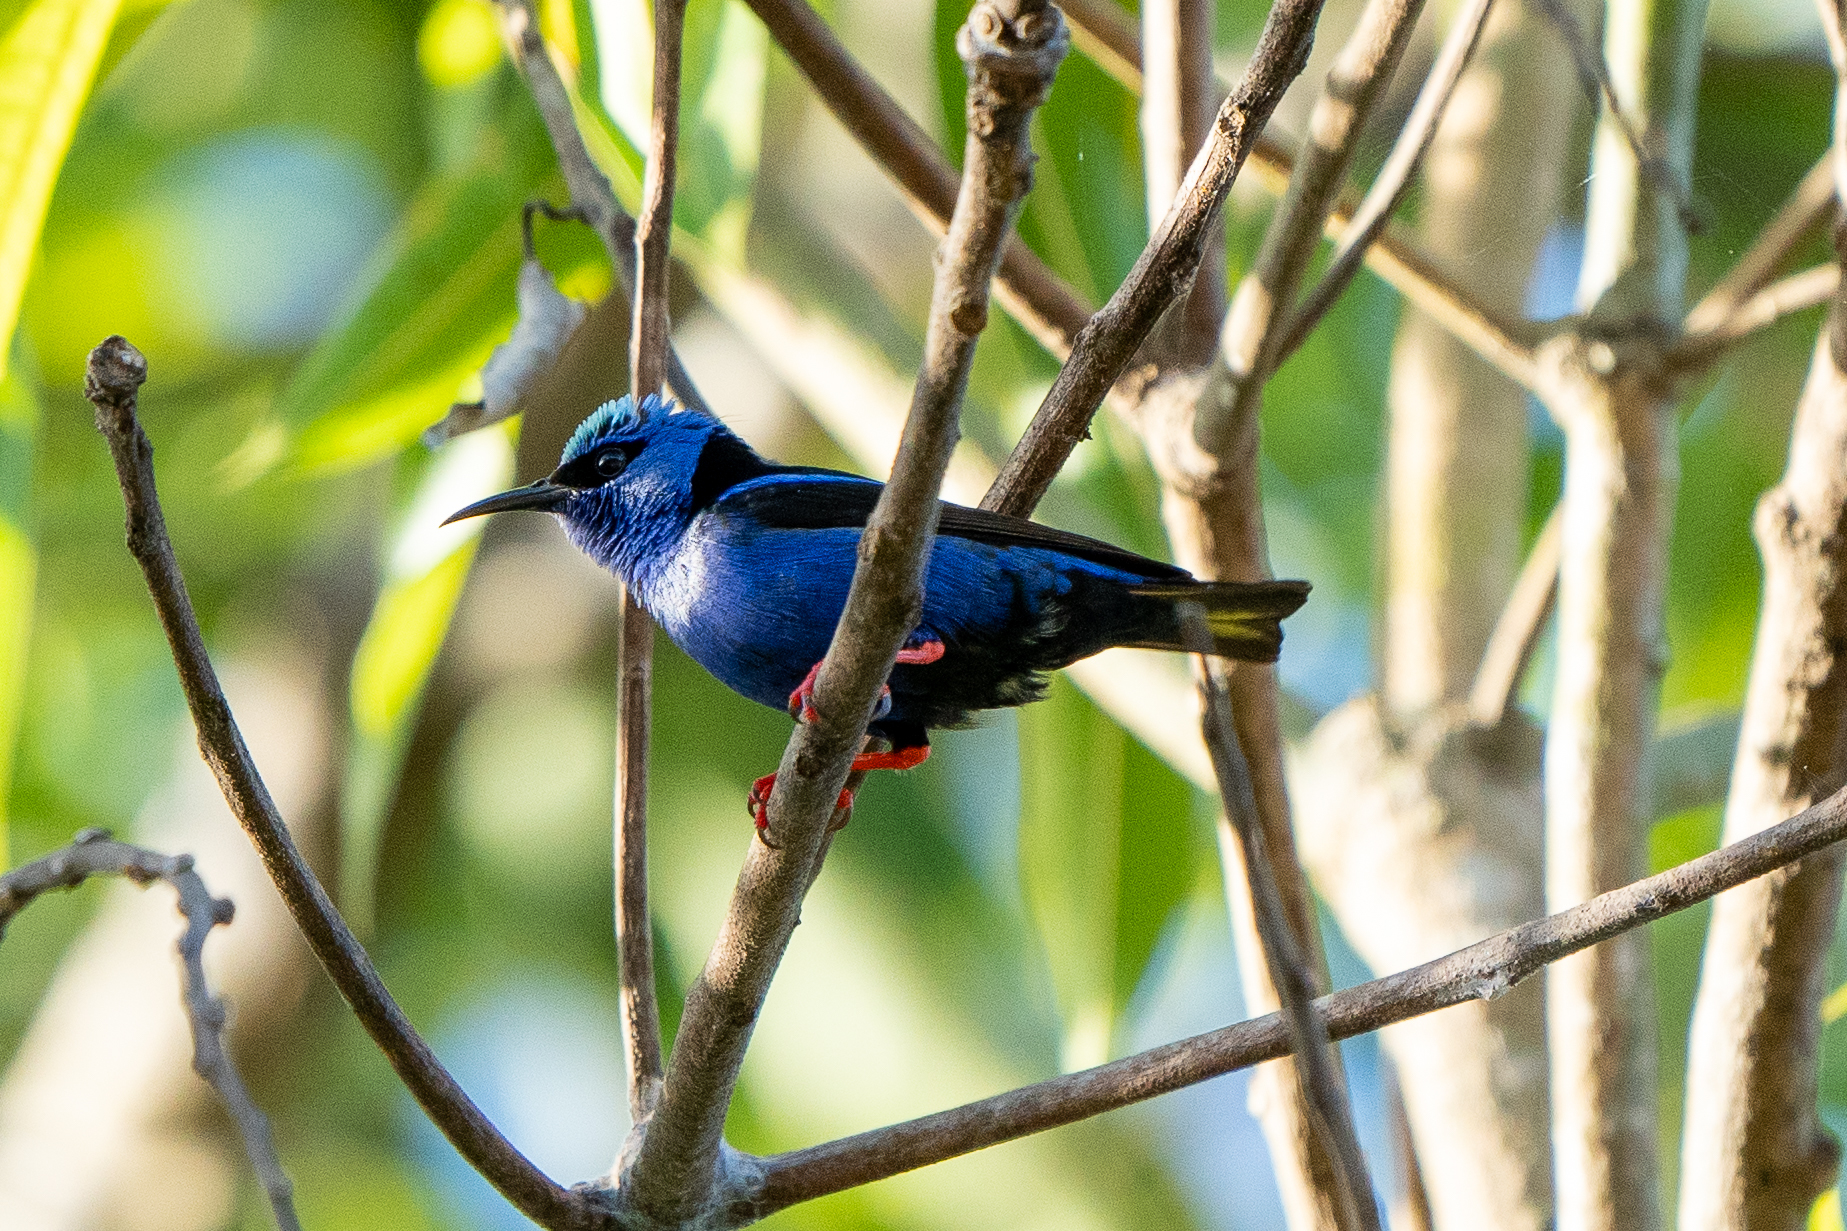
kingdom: Animalia
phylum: Chordata
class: Aves
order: Passeriformes
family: Thraupidae
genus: Cyanerpes
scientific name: Cyanerpes cyaneus
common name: Red-legged honeycreeper
